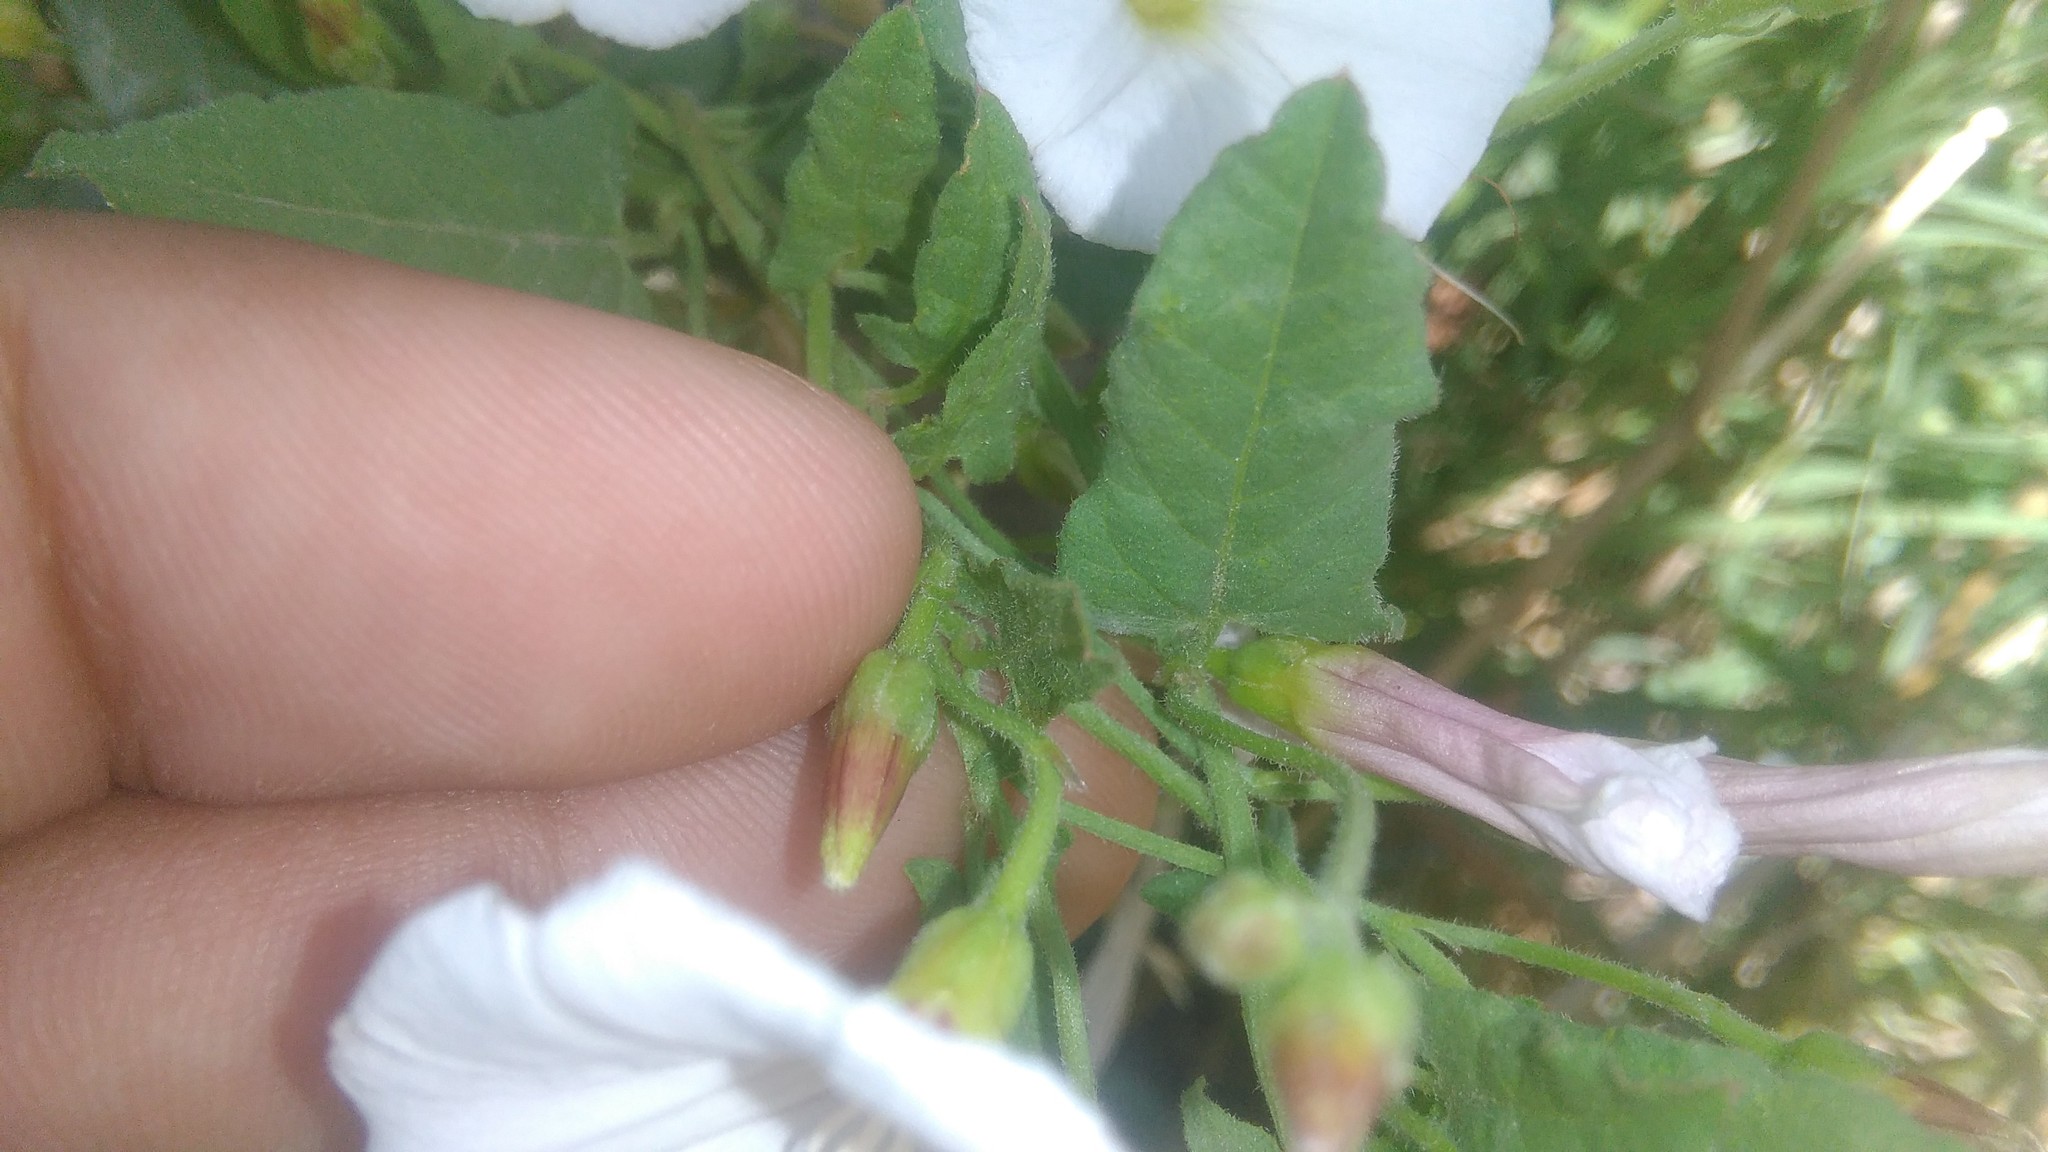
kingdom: Plantae
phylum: Tracheophyta
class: Magnoliopsida
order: Solanales
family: Convolvulaceae
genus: Convolvulus
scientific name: Convolvulus arvensis
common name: Field bindweed
